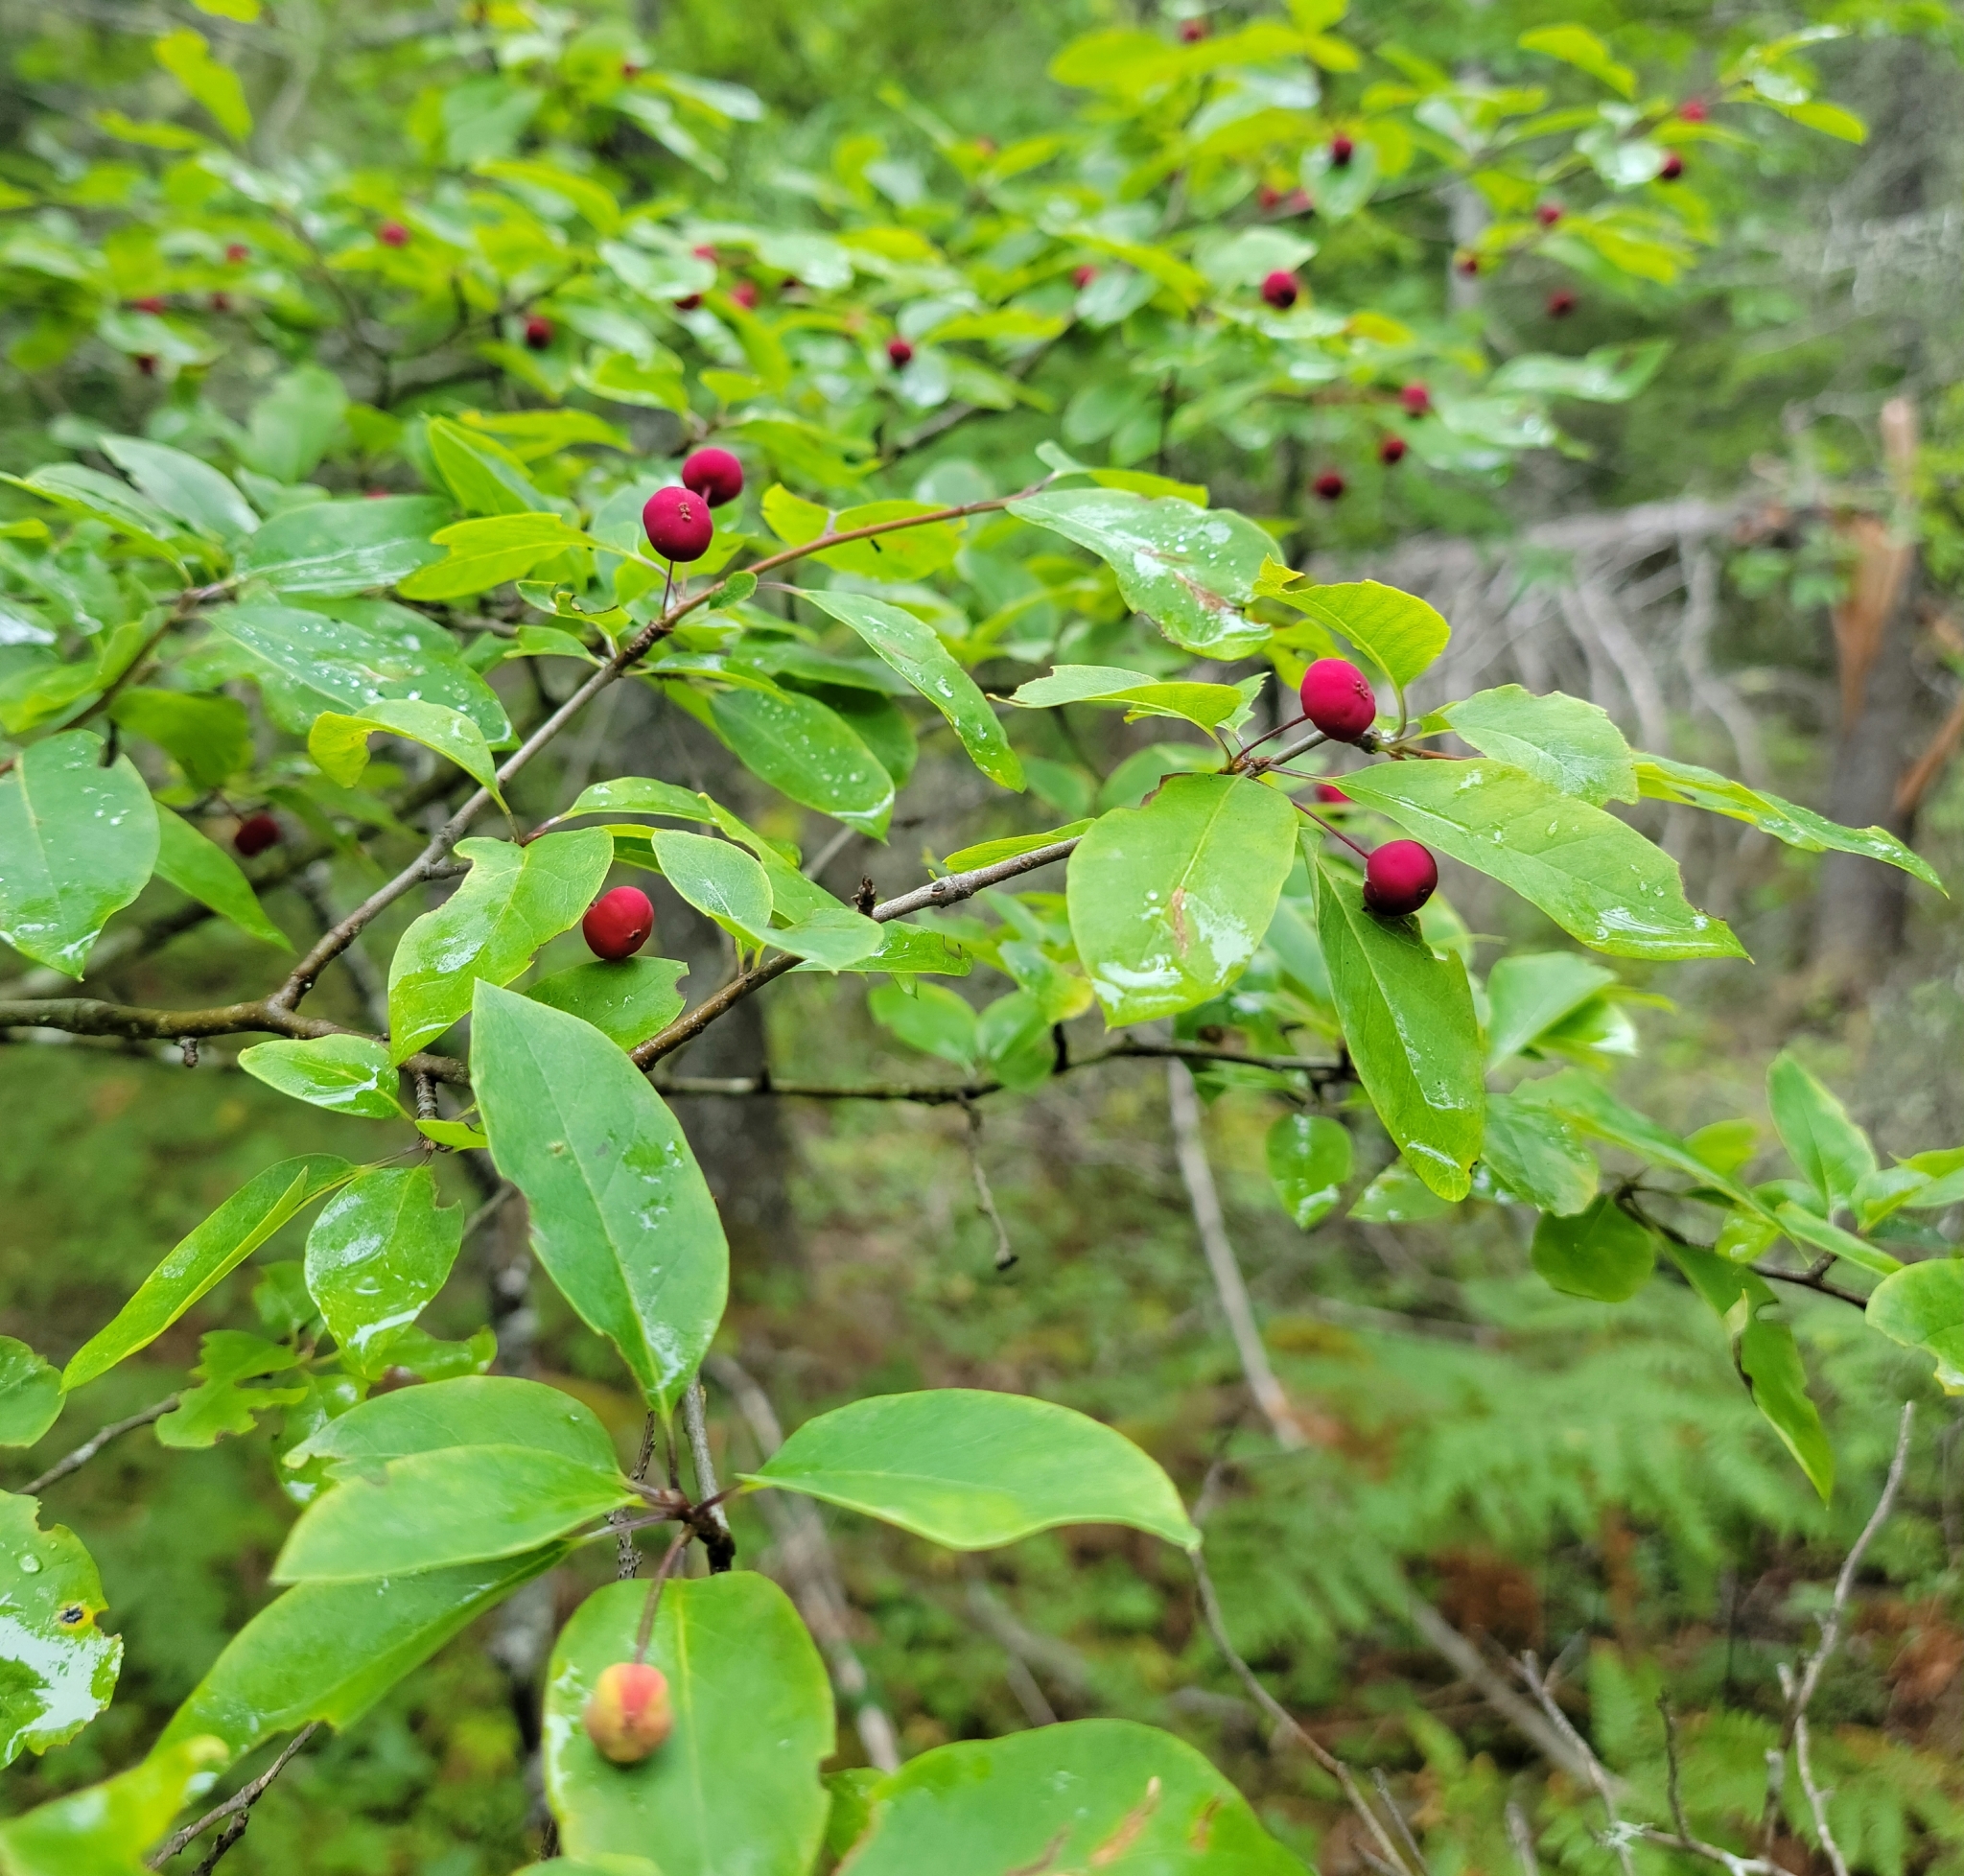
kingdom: Plantae
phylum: Tracheophyta
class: Magnoliopsida
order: Aquifoliales
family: Aquifoliaceae
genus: Ilex
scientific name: Ilex mucronata
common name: Catberry
